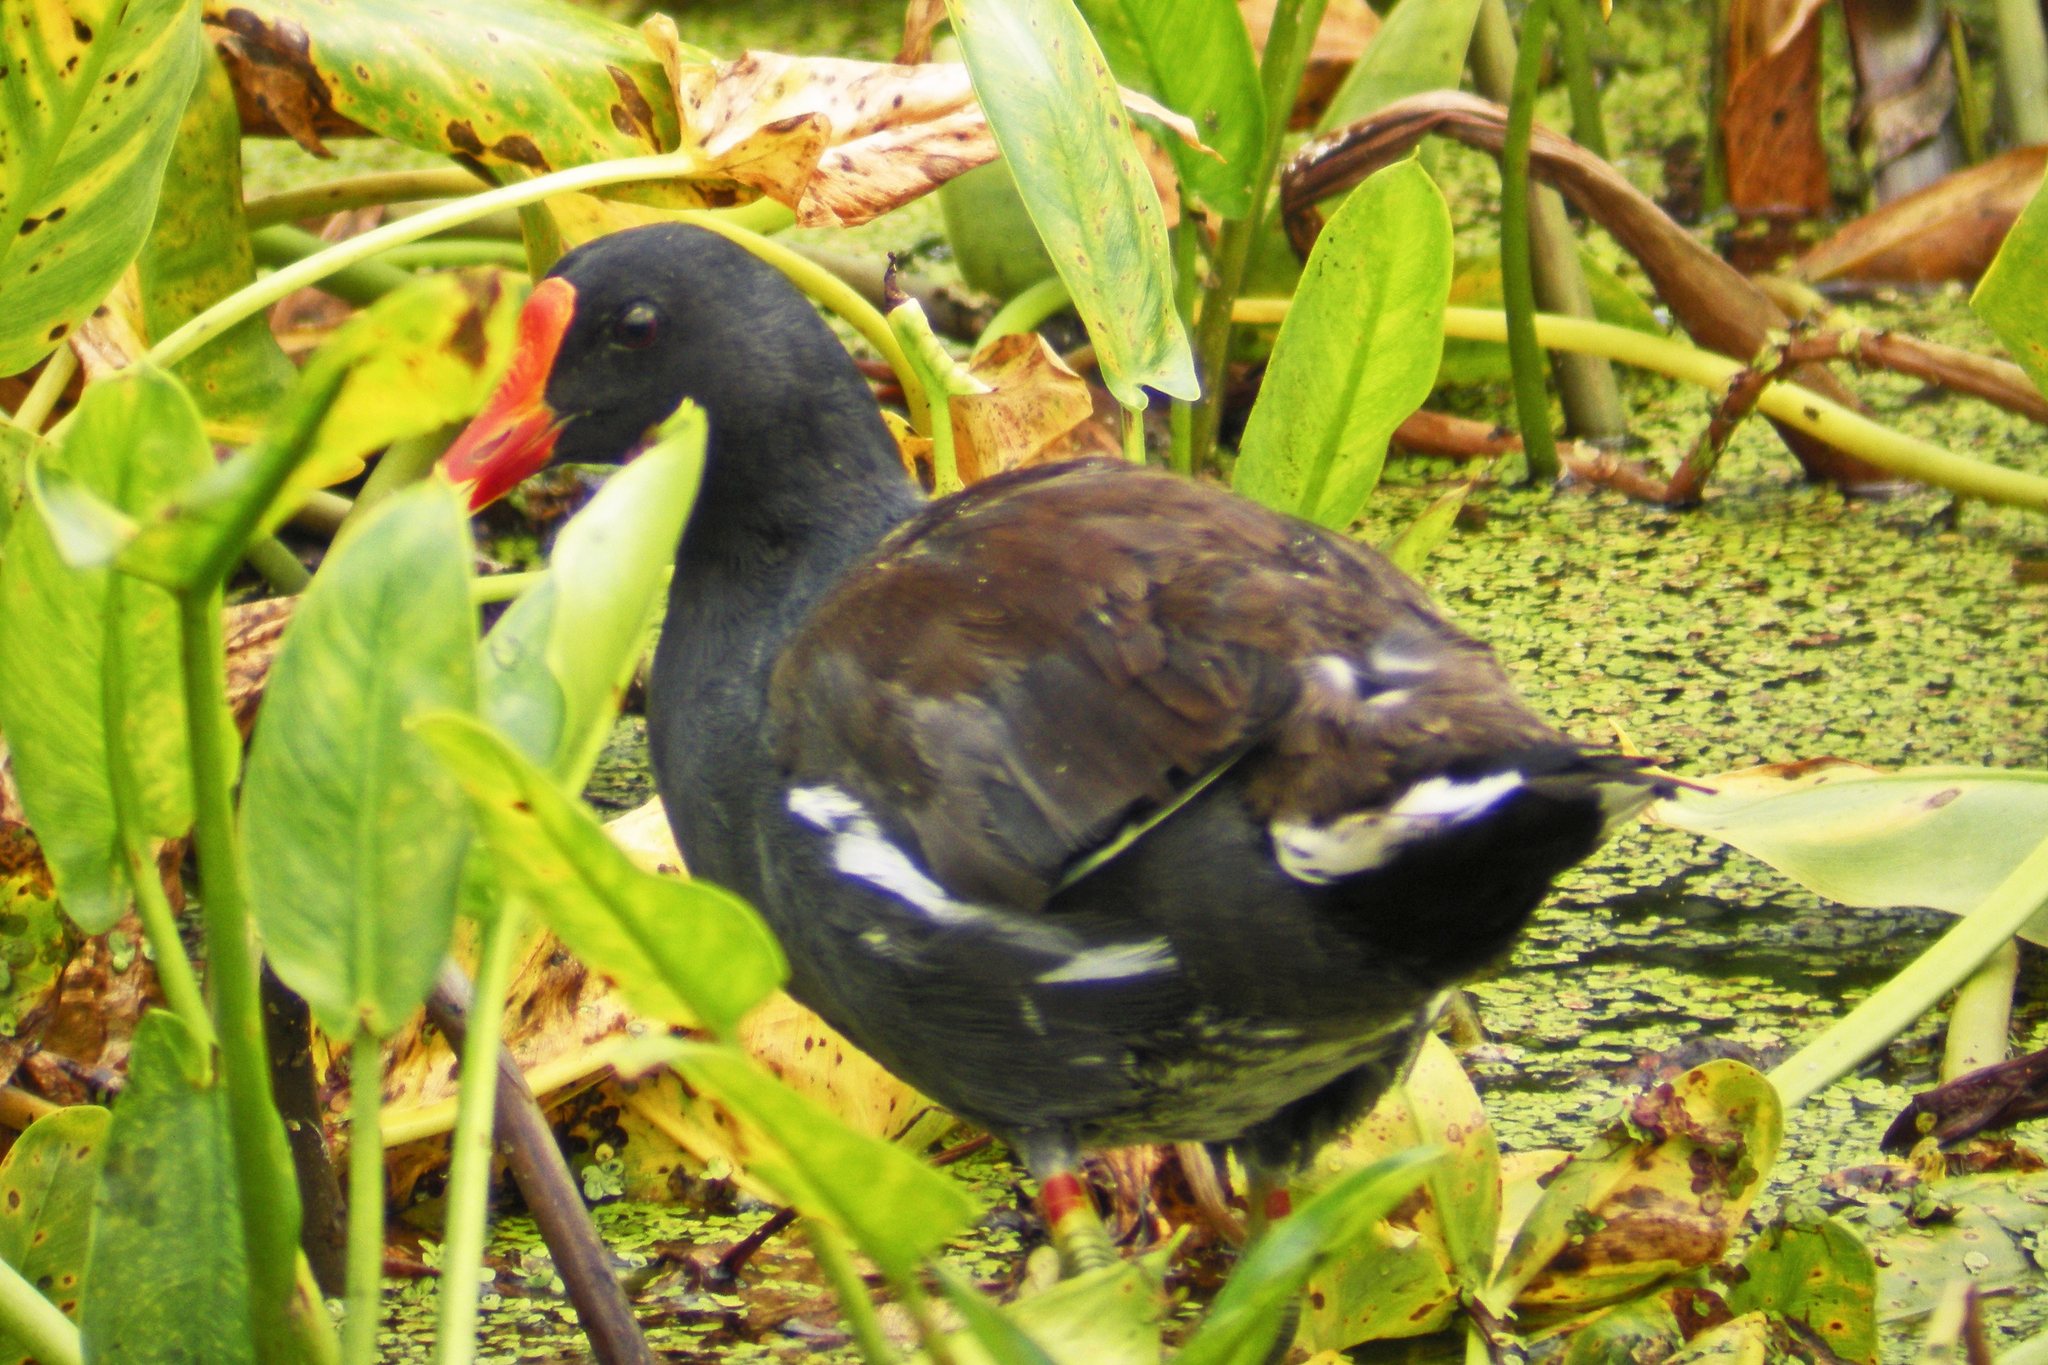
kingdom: Animalia
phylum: Chordata
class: Aves
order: Gruiformes
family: Rallidae
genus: Gallinula
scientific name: Gallinula chloropus
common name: Common moorhen
